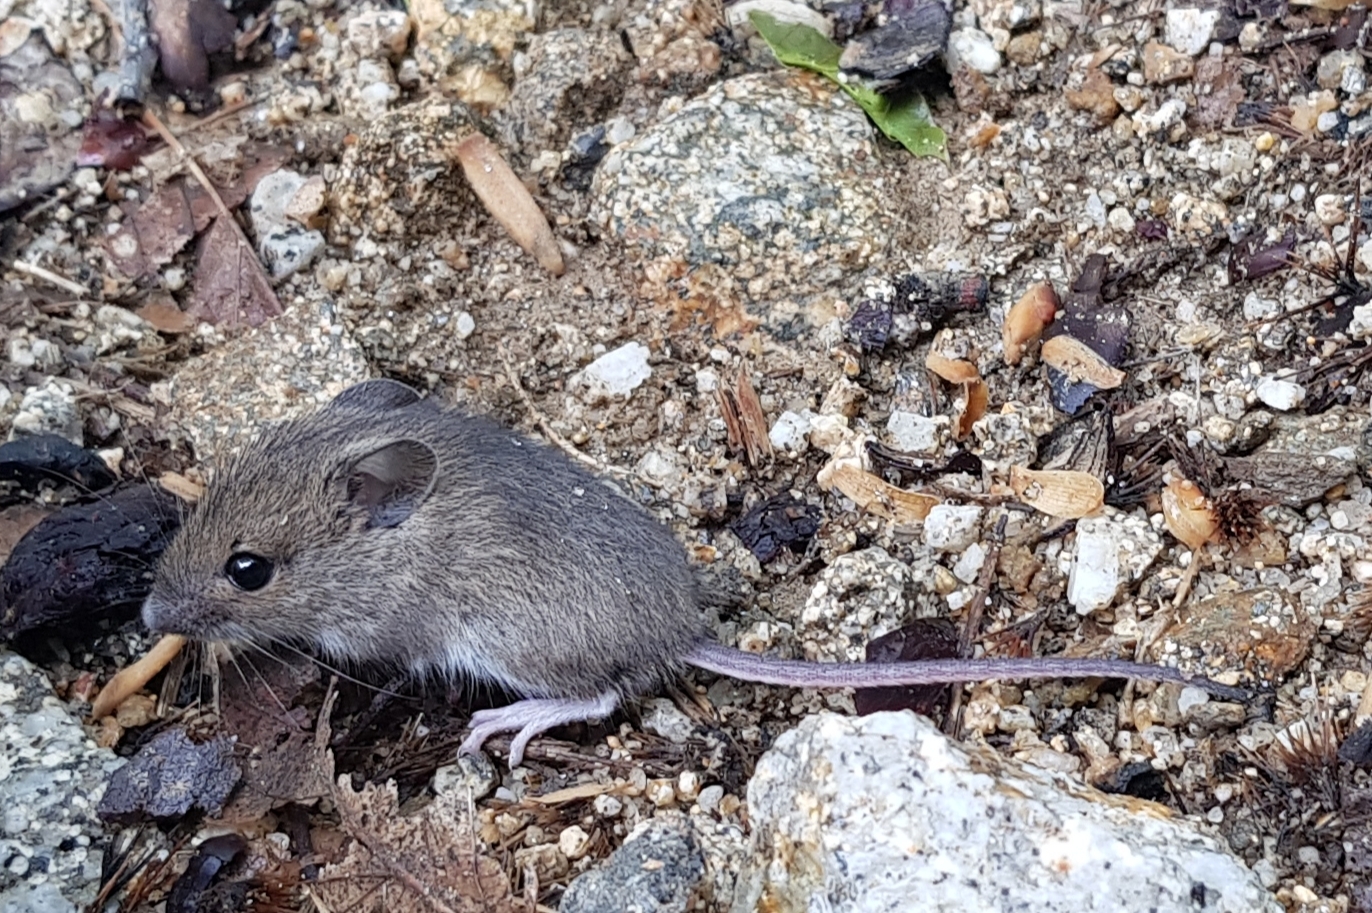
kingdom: Animalia
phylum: Chordata
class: Mammalia
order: Rodentia
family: Muridae
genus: Apodemus
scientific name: Apodemus sylvaticus
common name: Wood mouse
